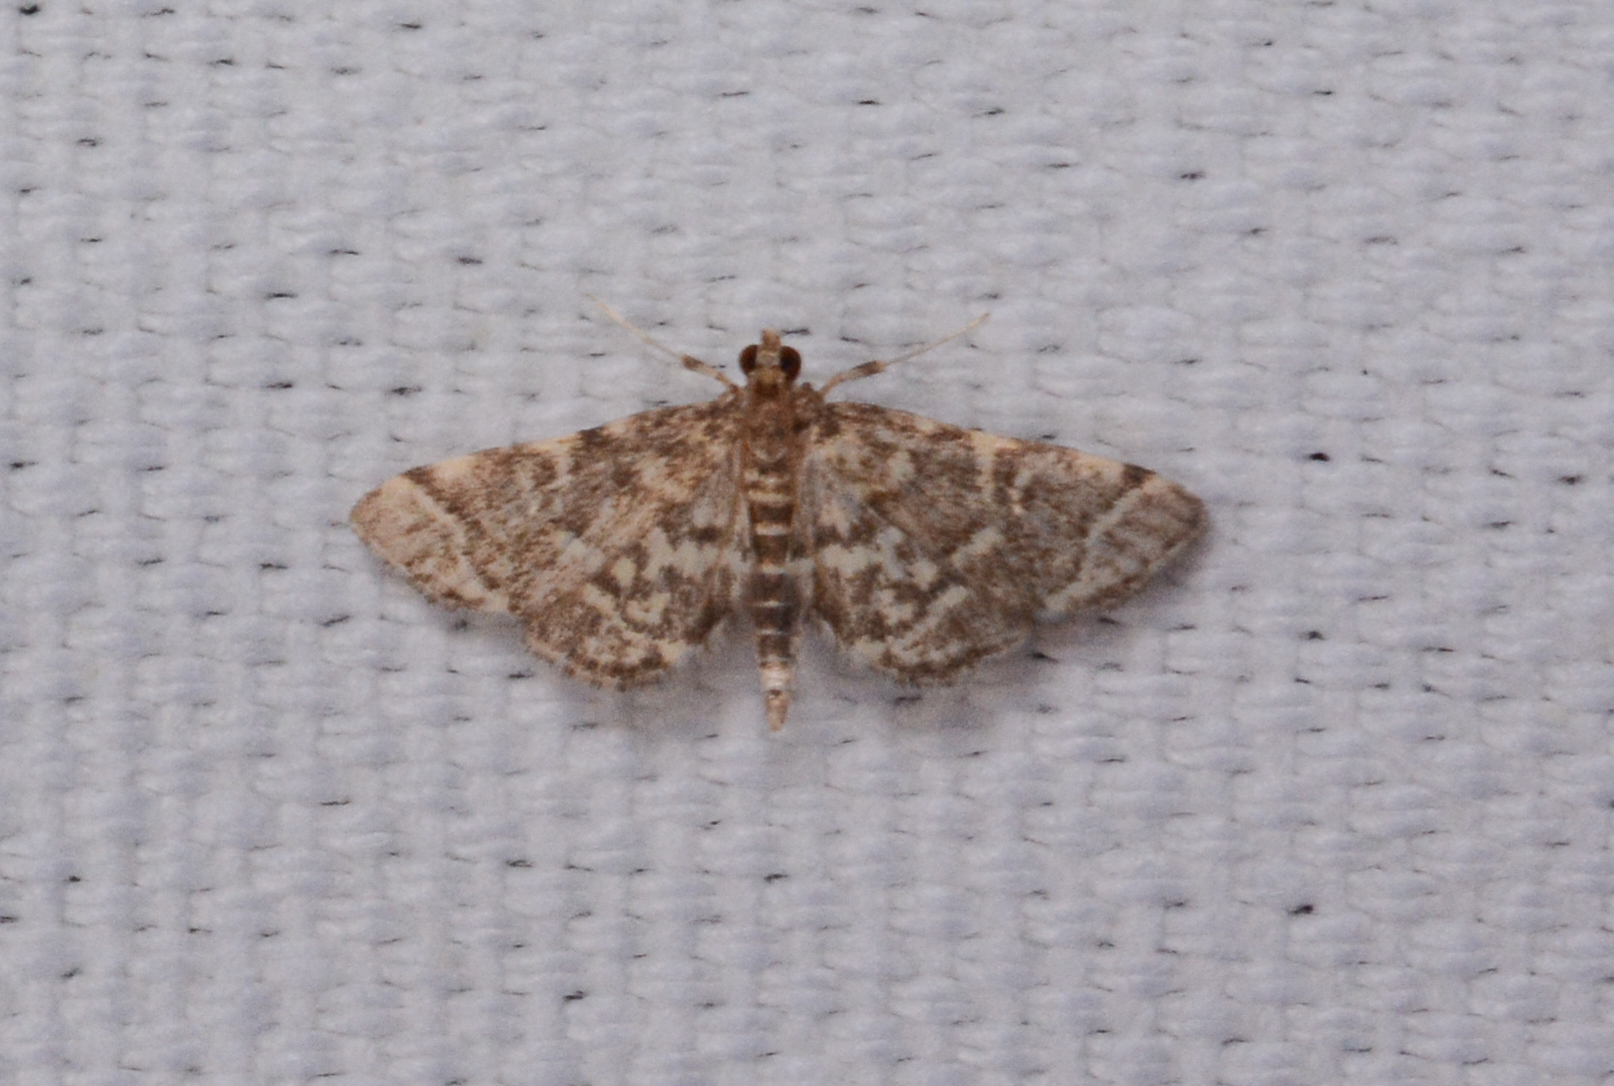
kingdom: Animalia
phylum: Arthropoda
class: Insecta
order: Lepidoptera
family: Crambidae
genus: Anageshna
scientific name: Anageshna primordialis
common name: Yellow-spotted webworm moth
